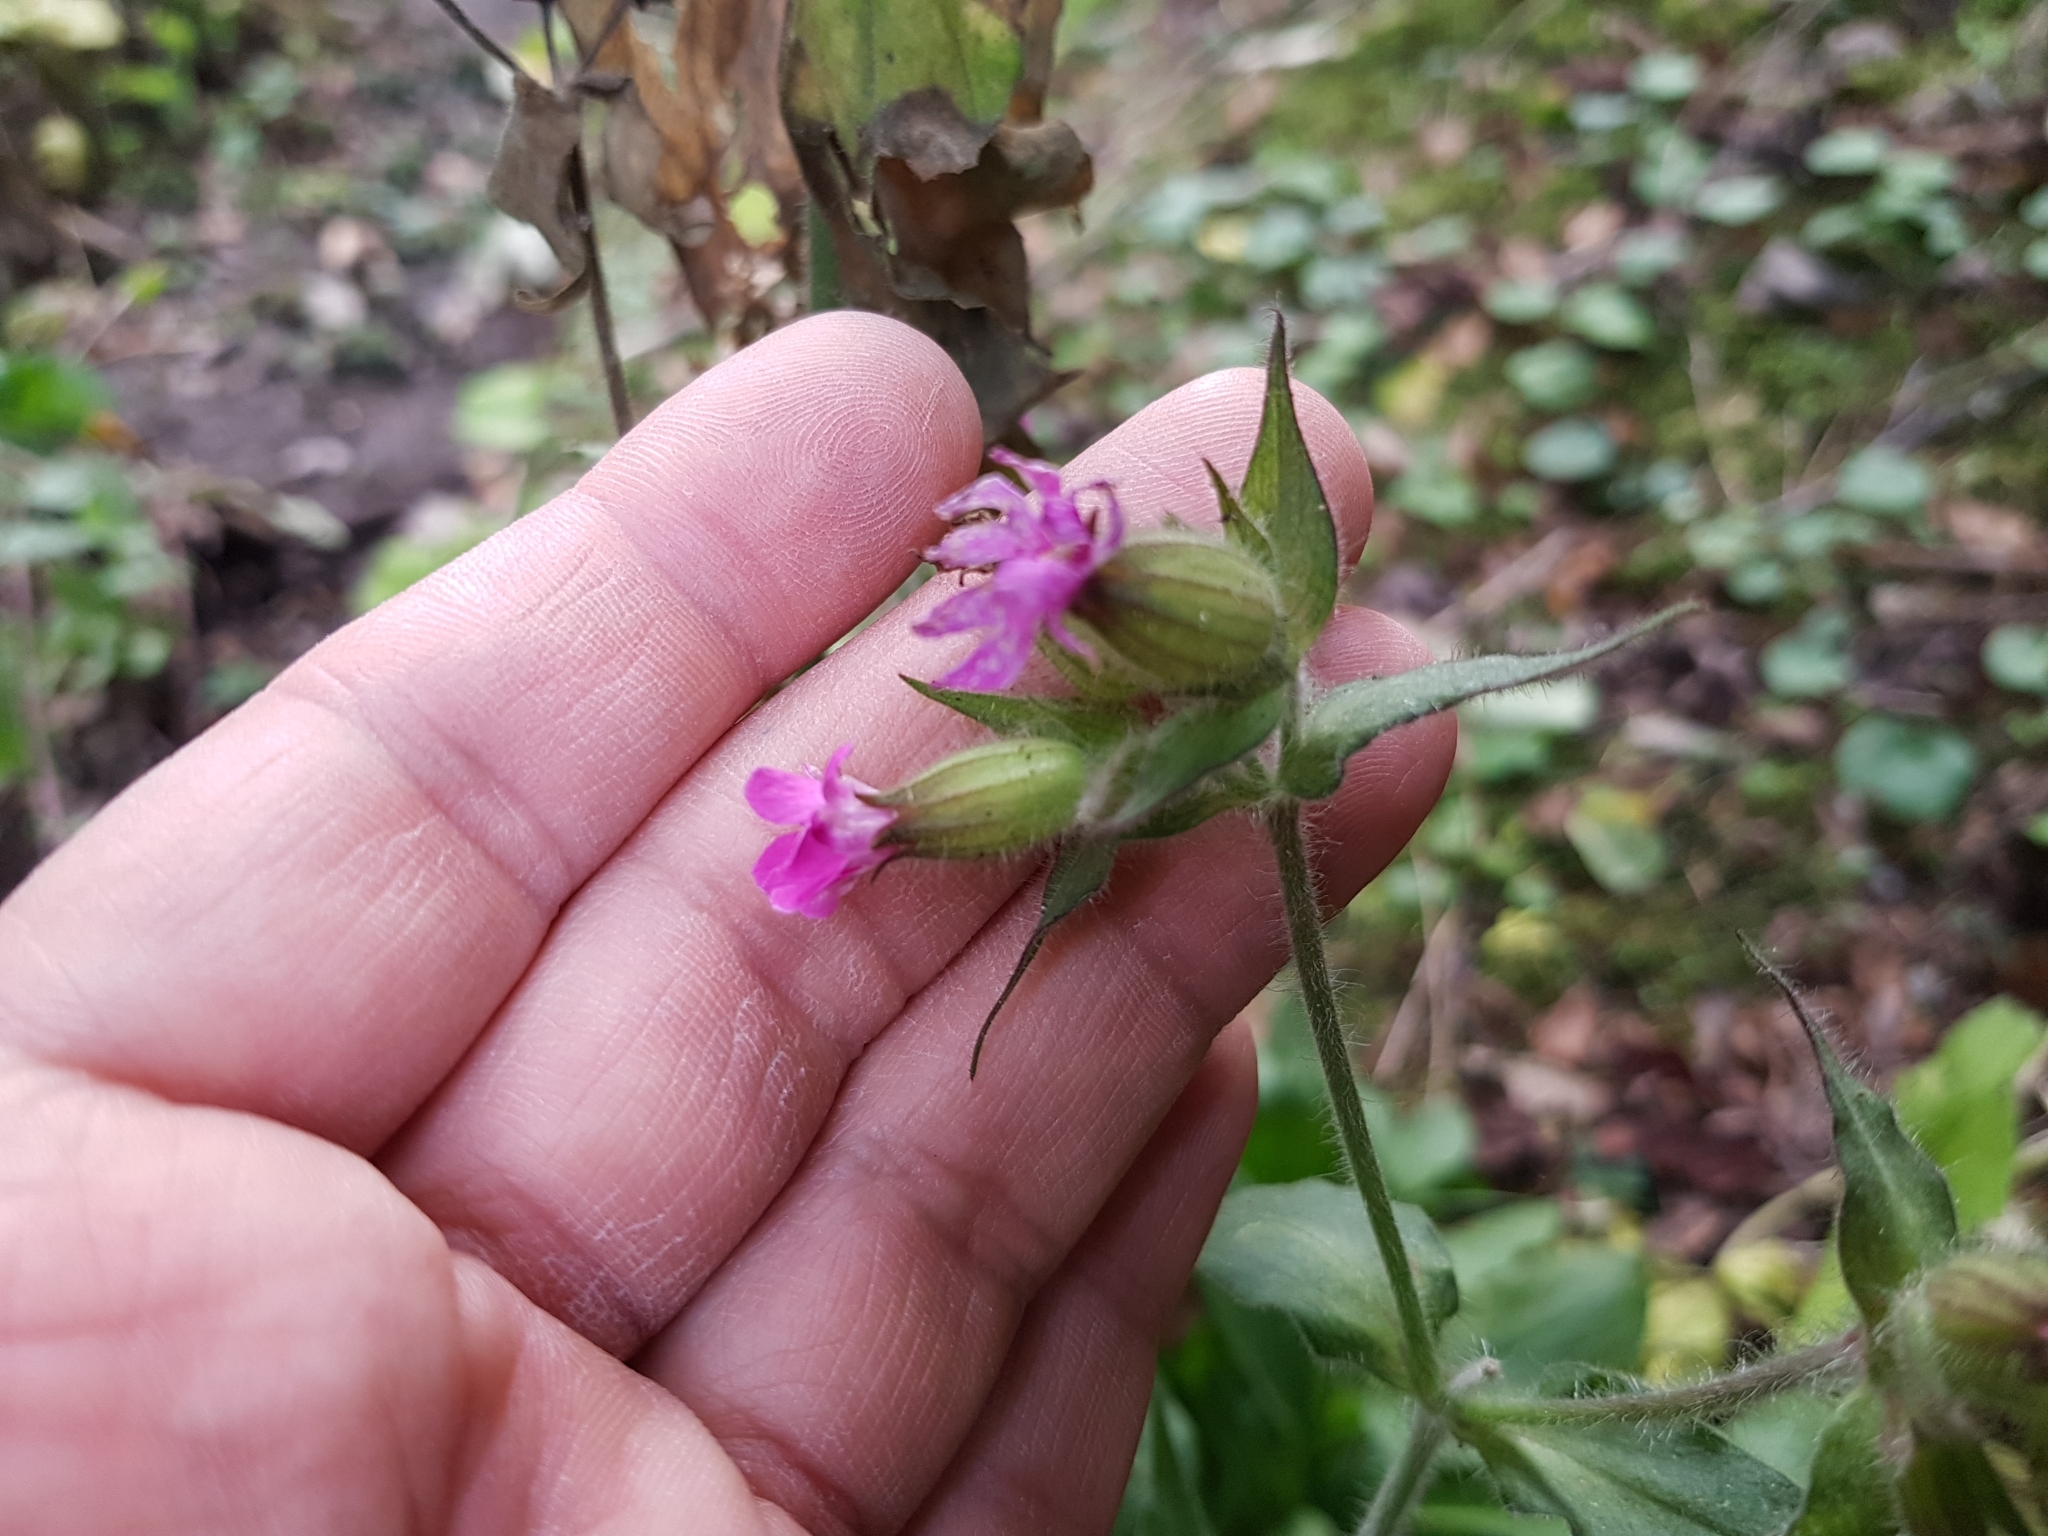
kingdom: Plantae
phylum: Tracheophyta
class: Magnoliopsida
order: Caryophyllales
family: Caryophyllaceae
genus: Silene
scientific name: Silene dioica
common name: Red campion
